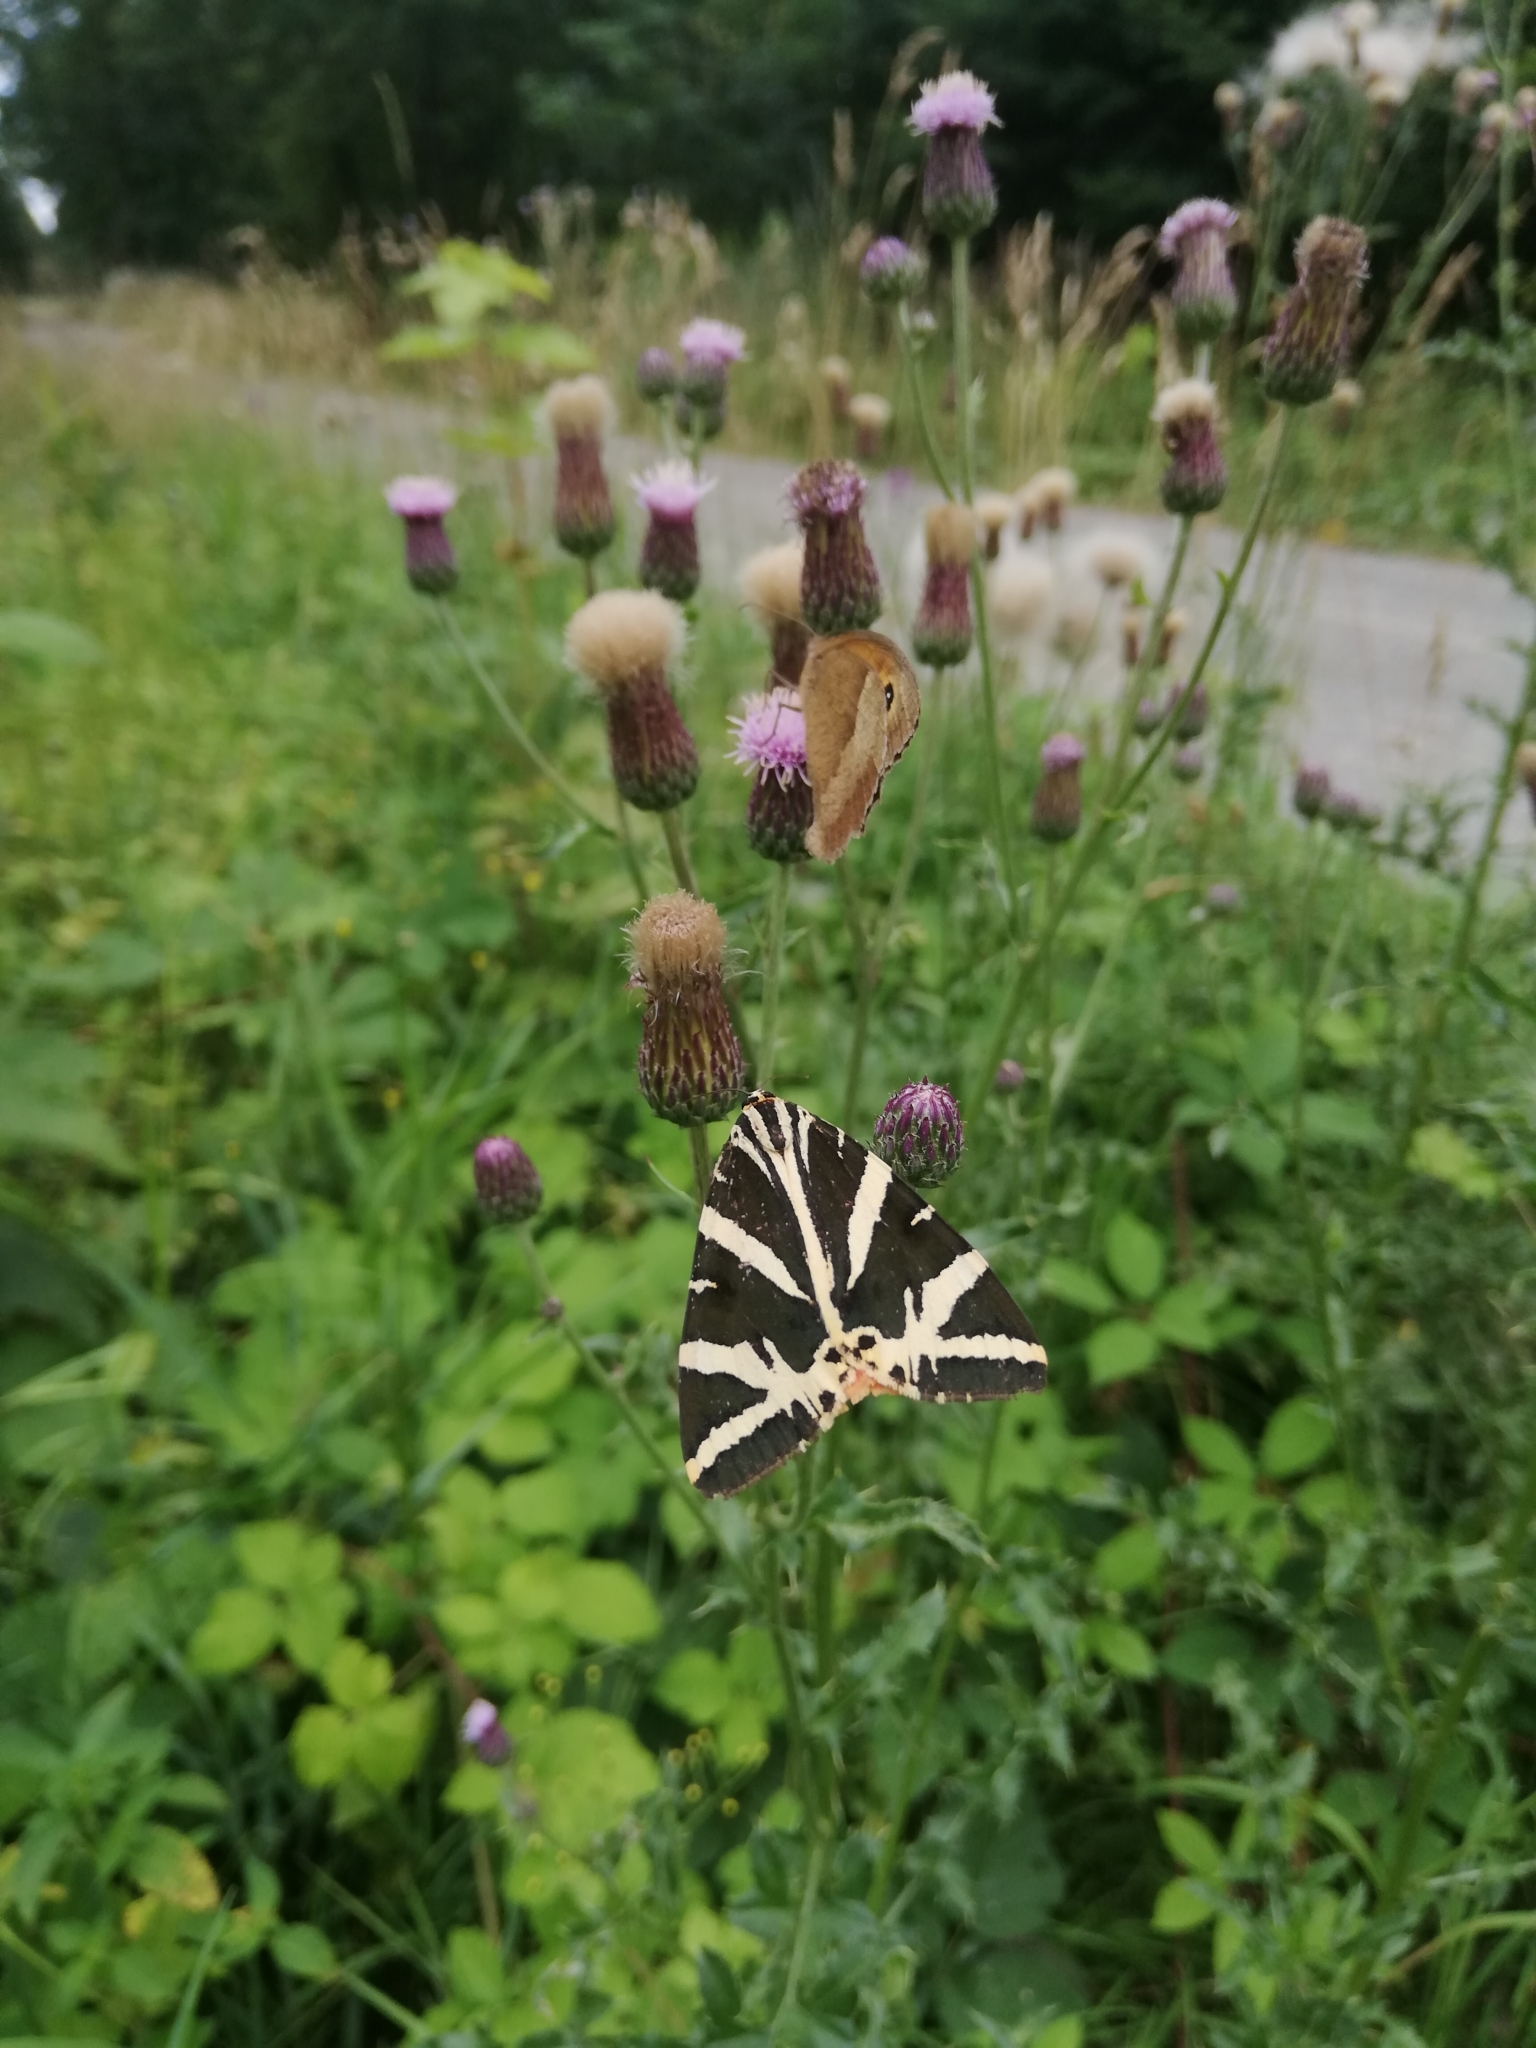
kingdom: Animalia
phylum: Arthropoda
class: Insecta
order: Lepidoptera
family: Erebidae
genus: Euplagia
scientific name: Euplagia quadripunctaria
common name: Jersey tiger
